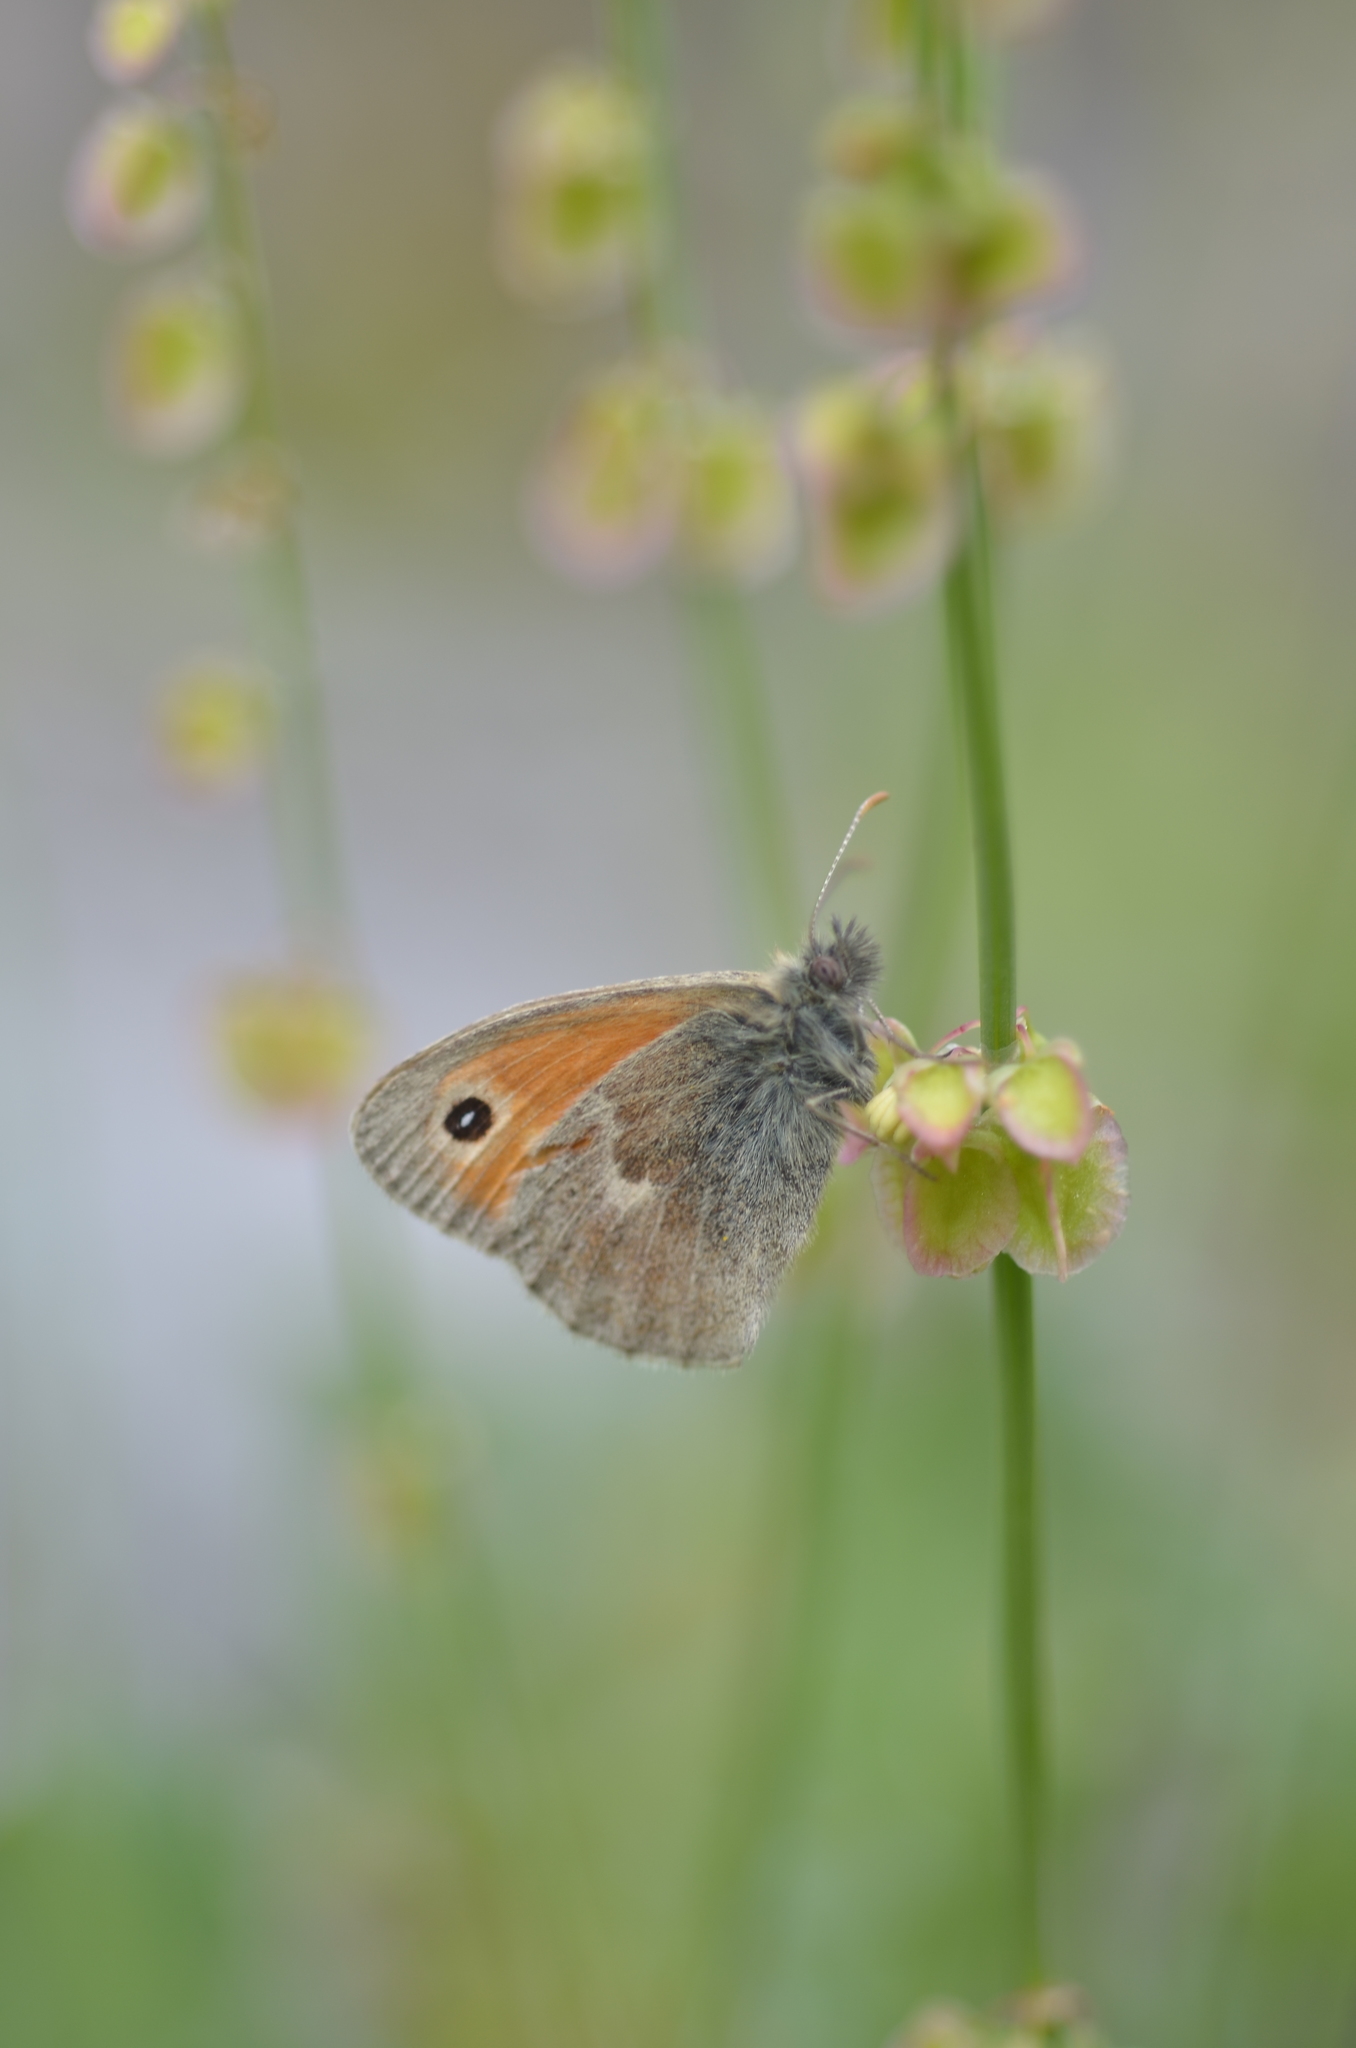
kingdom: Animalia
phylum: Arthropoda
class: Insecta
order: Lepidoptera
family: Nymphalidae
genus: Coenonympha
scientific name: Coenonympha pamphilus
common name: Small heath
